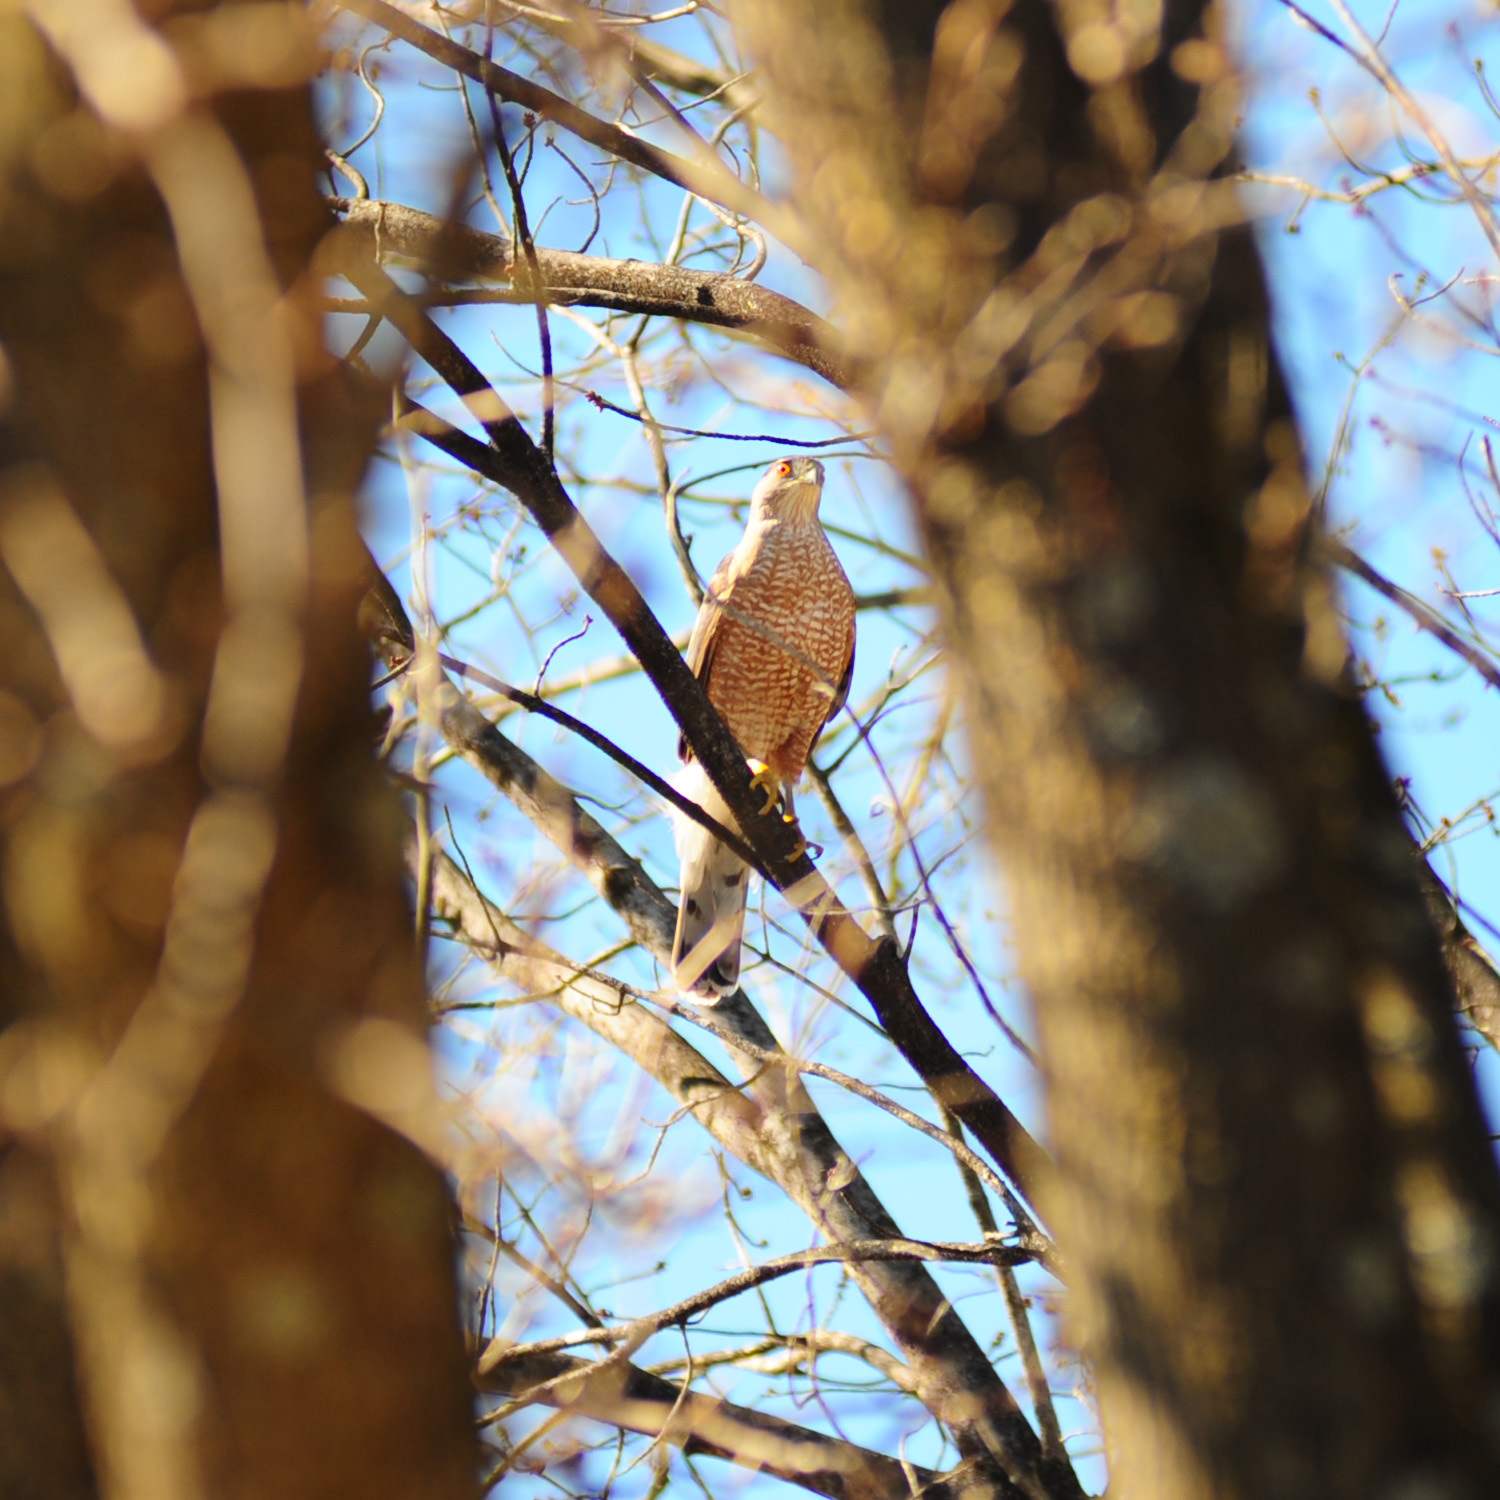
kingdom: Animalia
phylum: Chordata
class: Aves
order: Accipitriformes
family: Accipitridae
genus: Accipiter
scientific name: Accipiter cooperii
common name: Cooper's hawk
